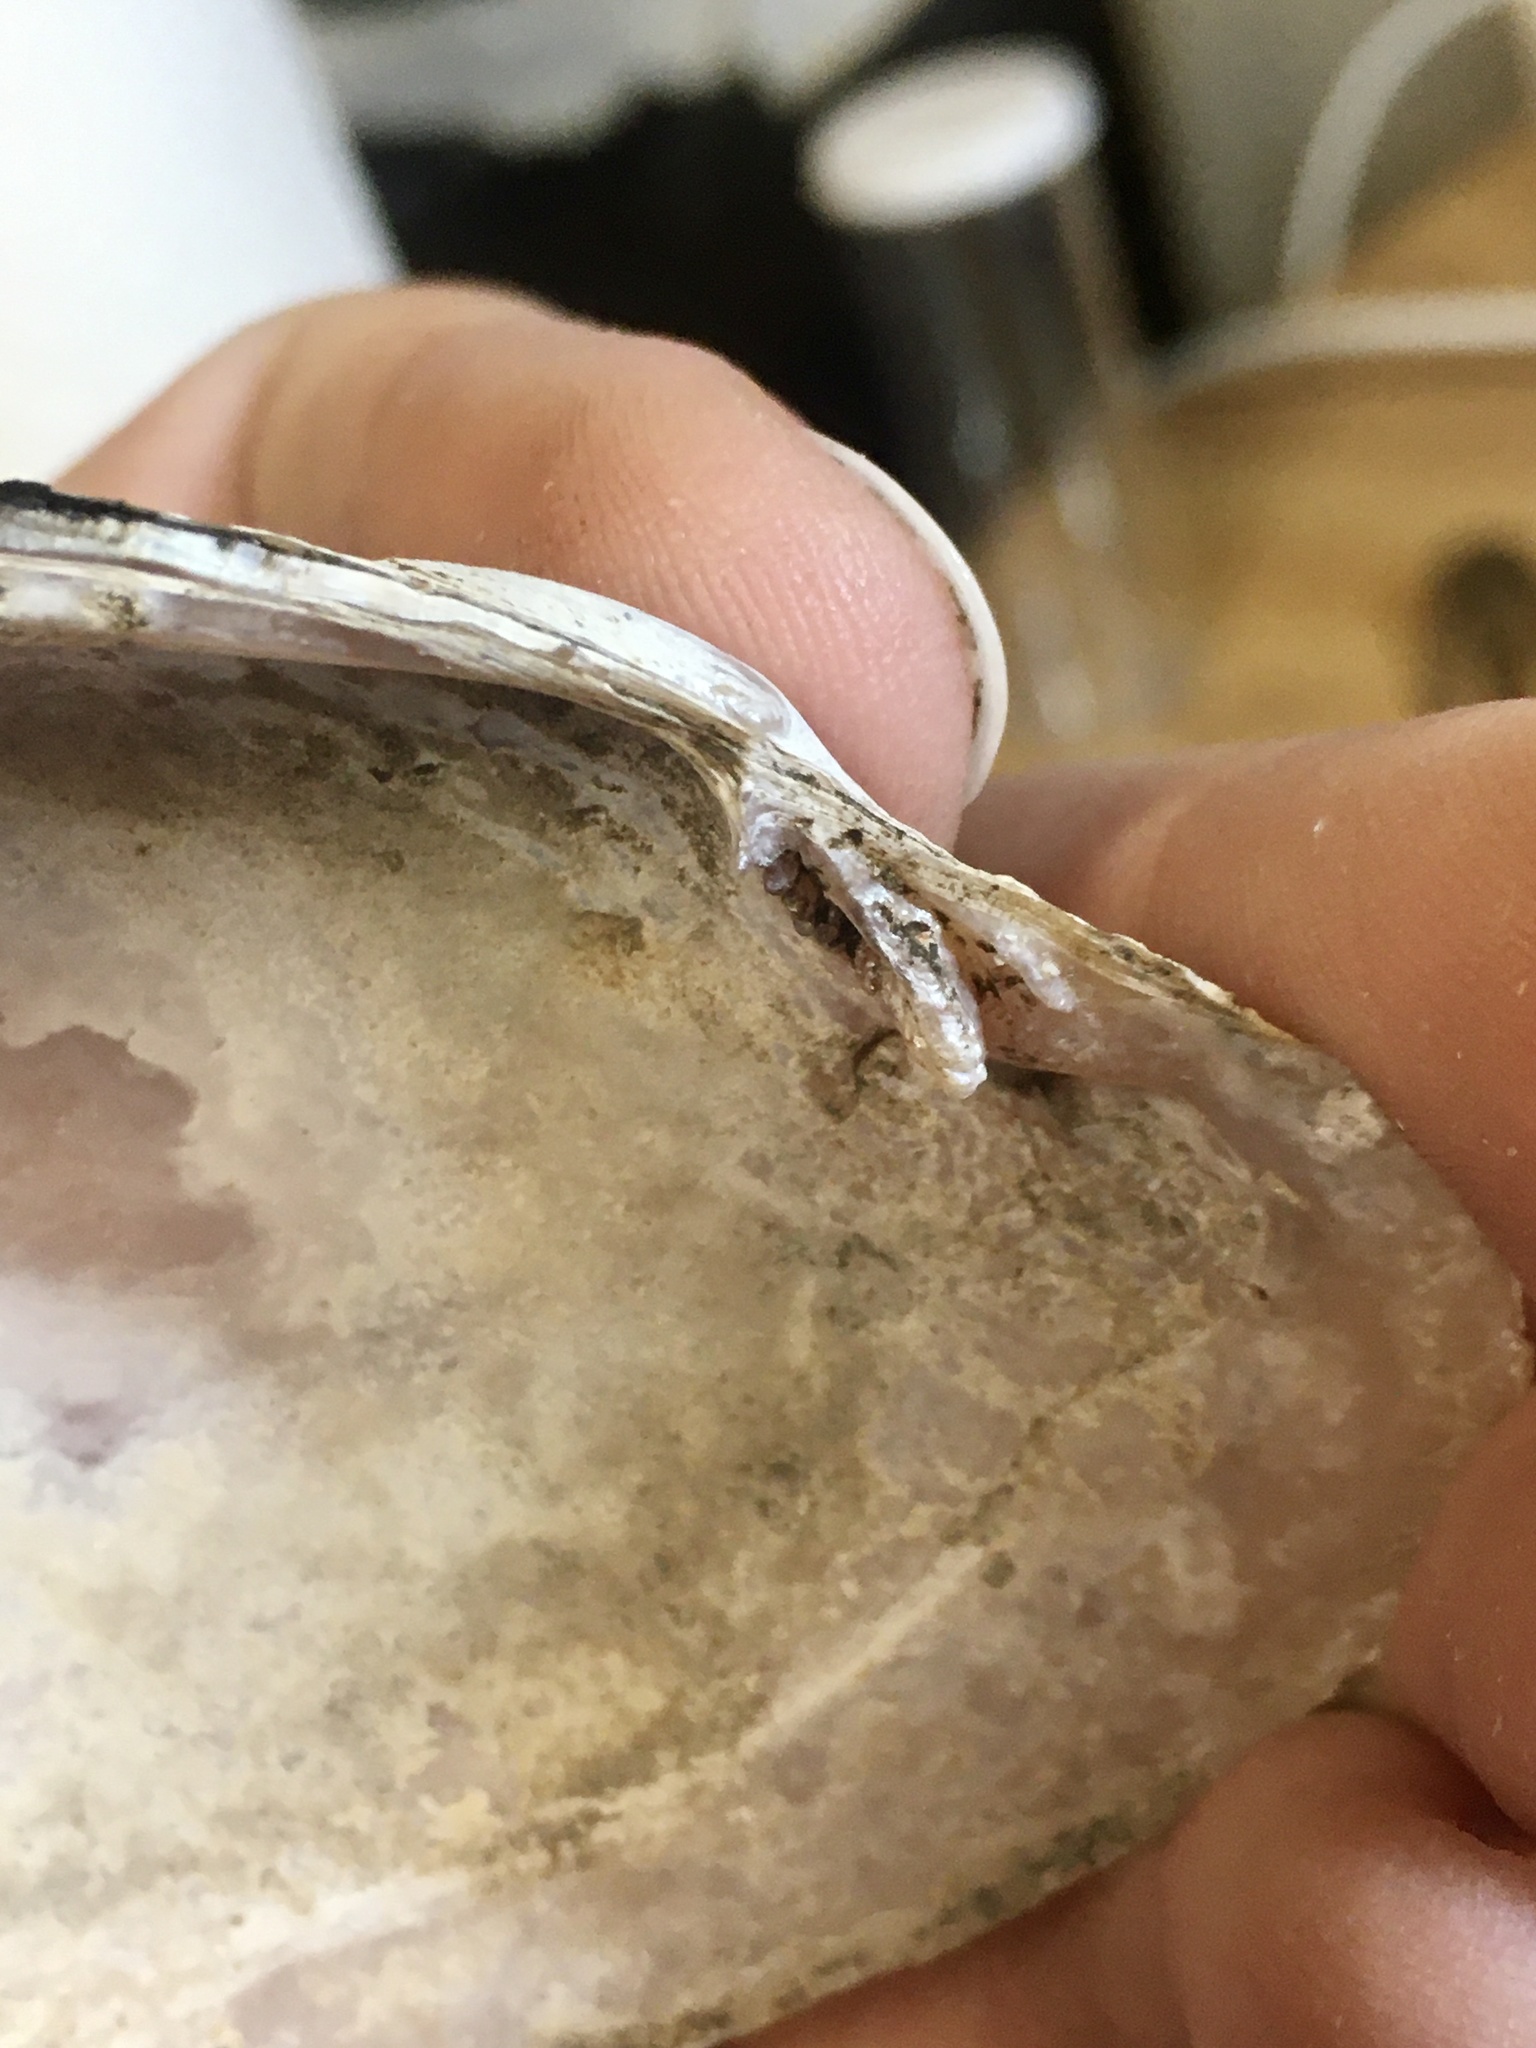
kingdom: Animalia
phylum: Mollusca
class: Bivalvia
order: Unionida
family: Unionidae
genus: Potamilus
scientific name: Potamilus alatus
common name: Pink heelsplitter
